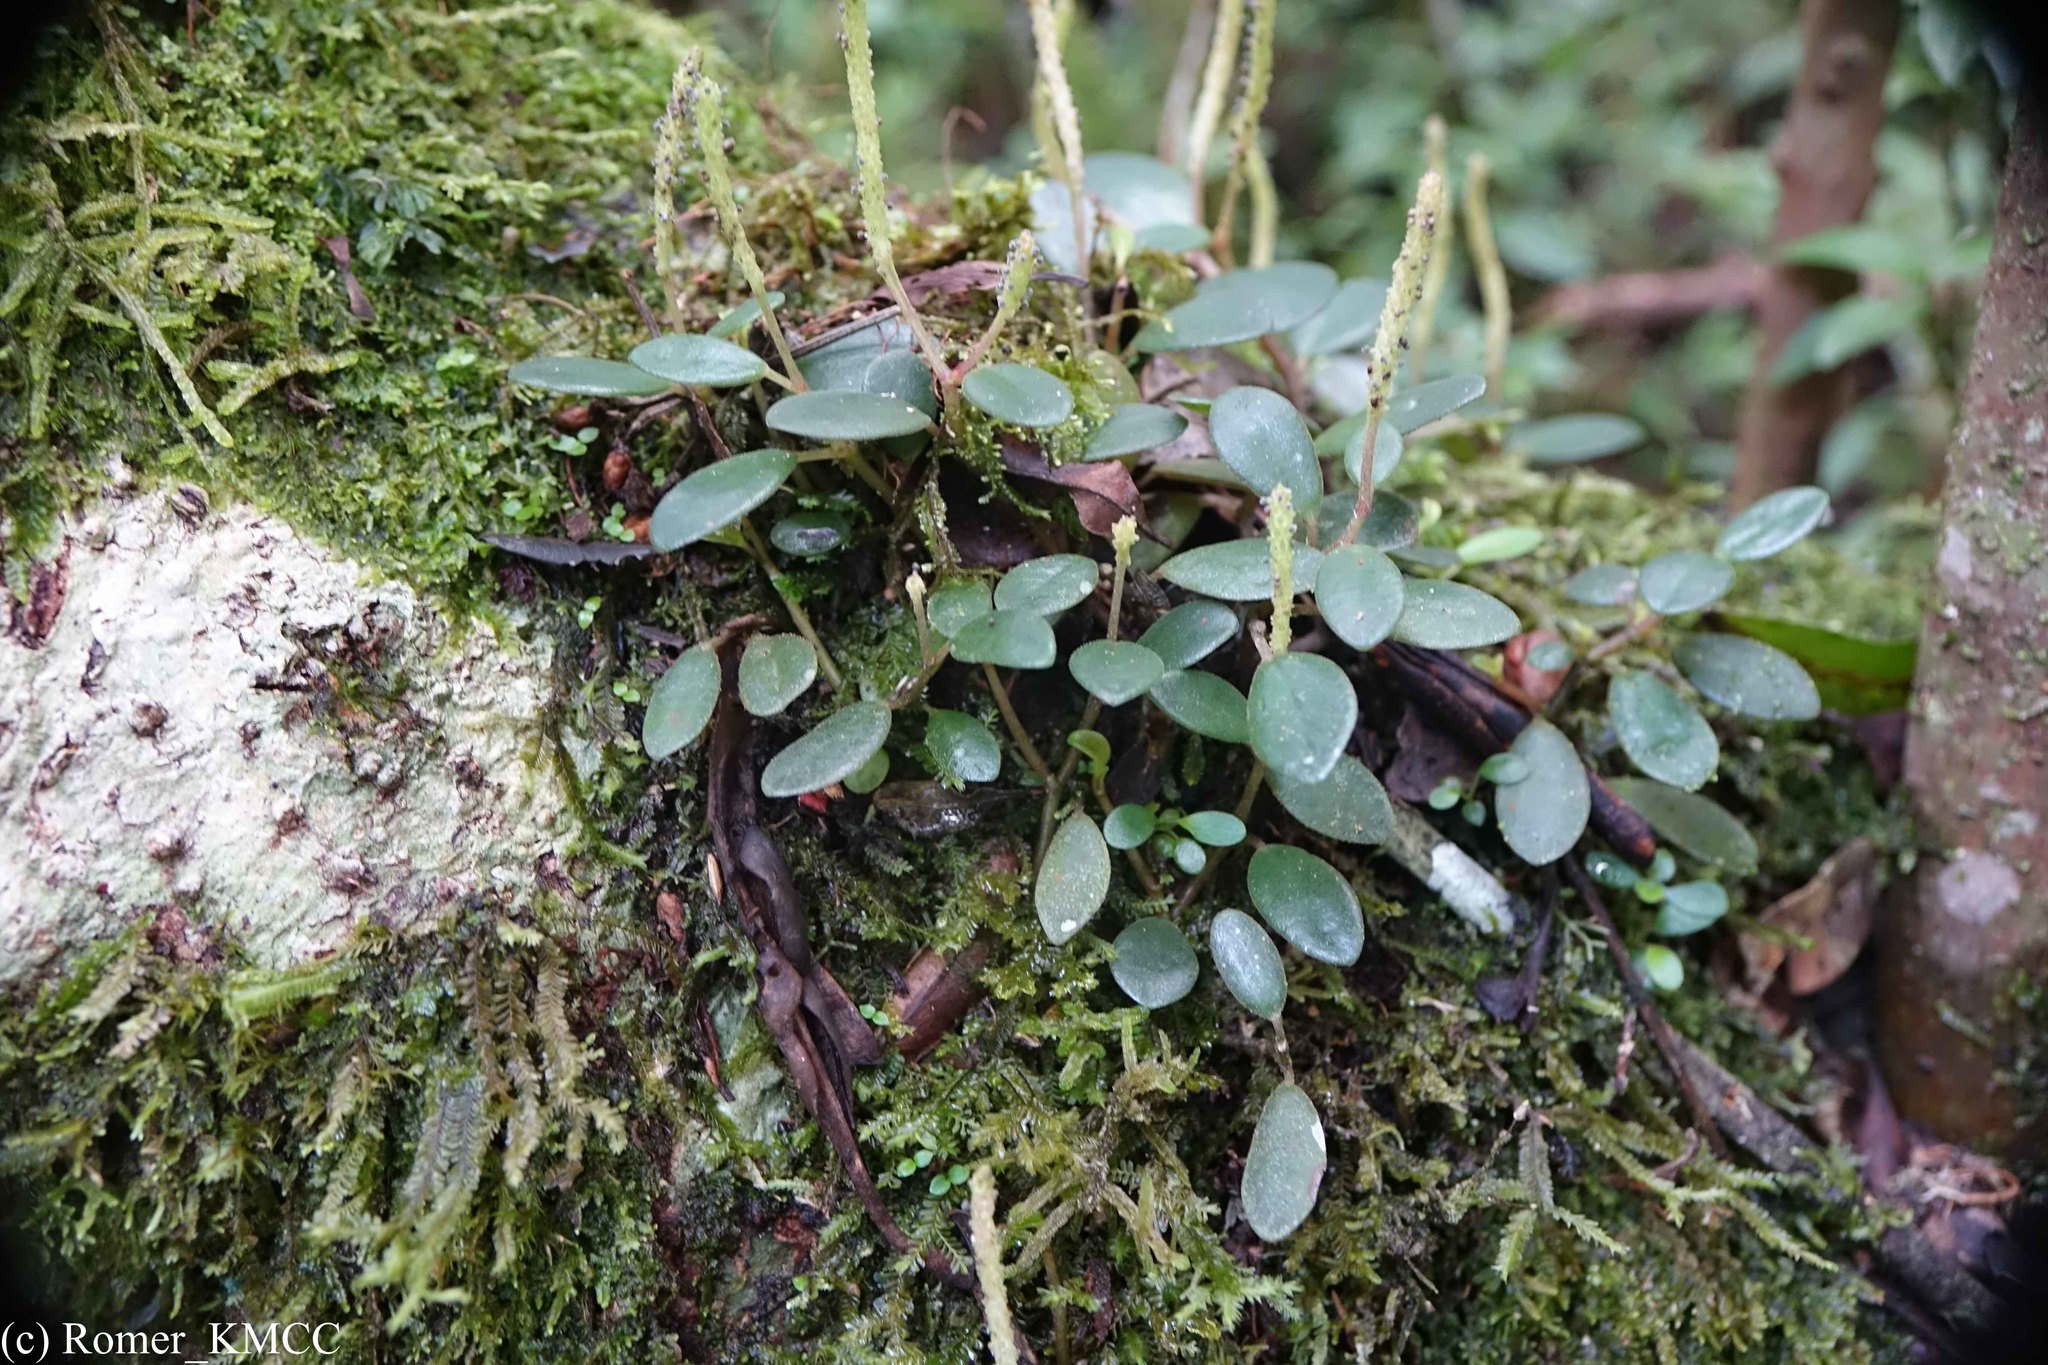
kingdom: Plantae
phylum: Tracheophyta
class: Magnoliopsida
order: Piperales
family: Piperaceae
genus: Peperomia
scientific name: Peperomia trichophylla
